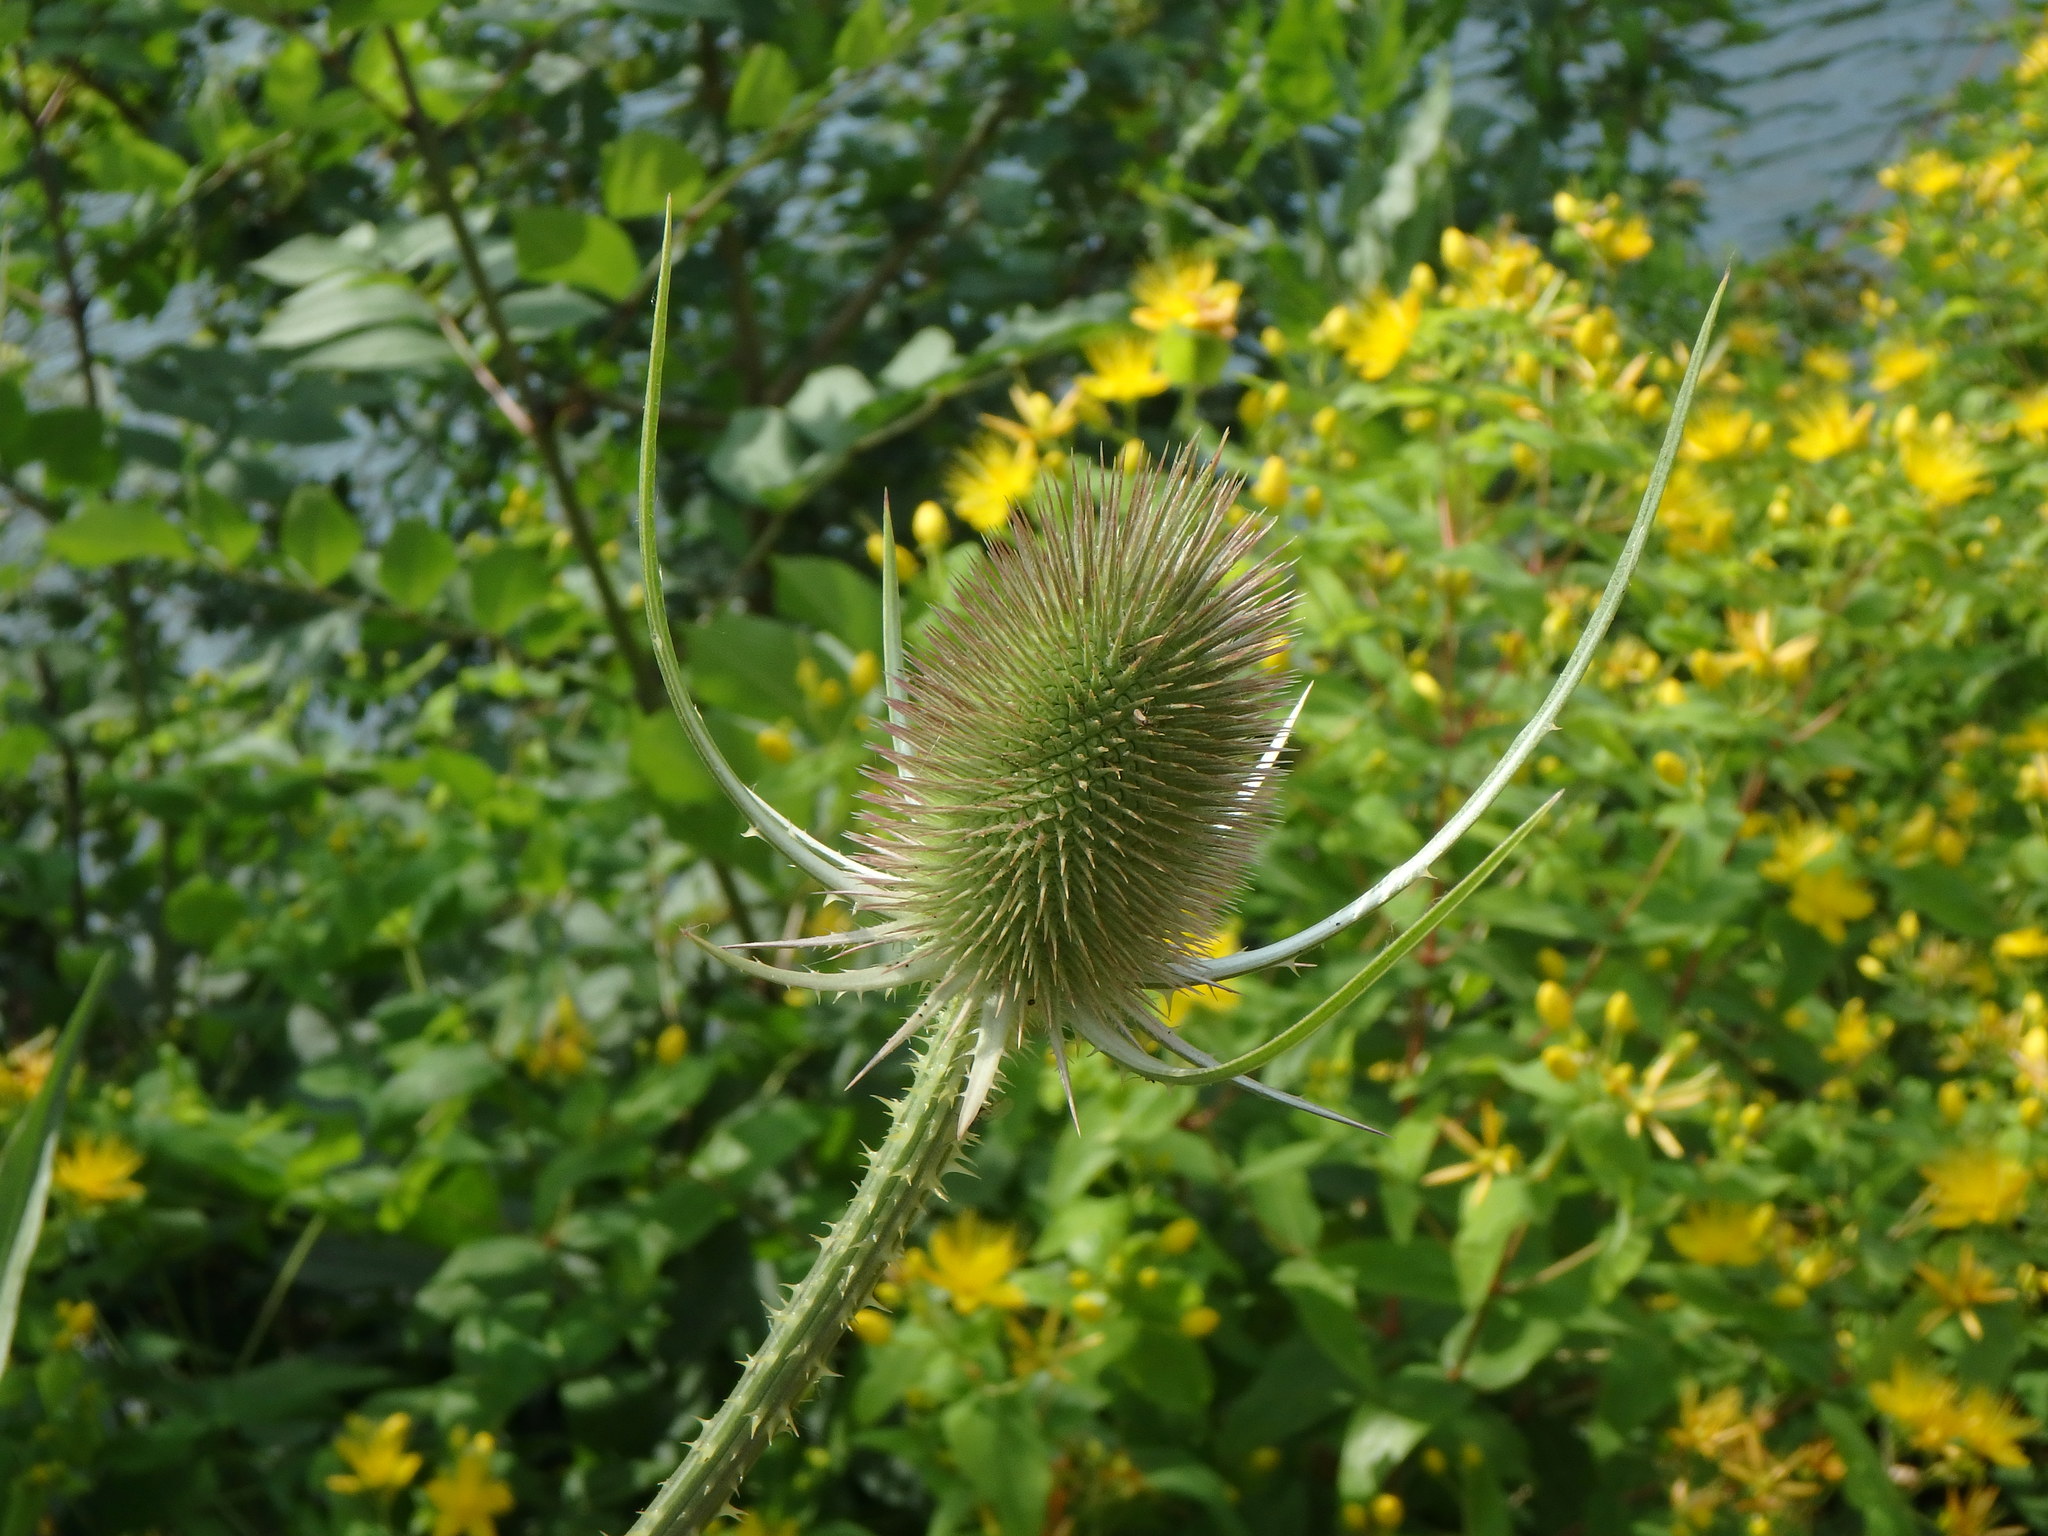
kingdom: Plantae
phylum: Tracheophyta
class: Magnoliopsida
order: Dipsacales
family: Caprifoliaceae
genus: Dipsacus
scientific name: Dipsacus fullonum
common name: Teasel
